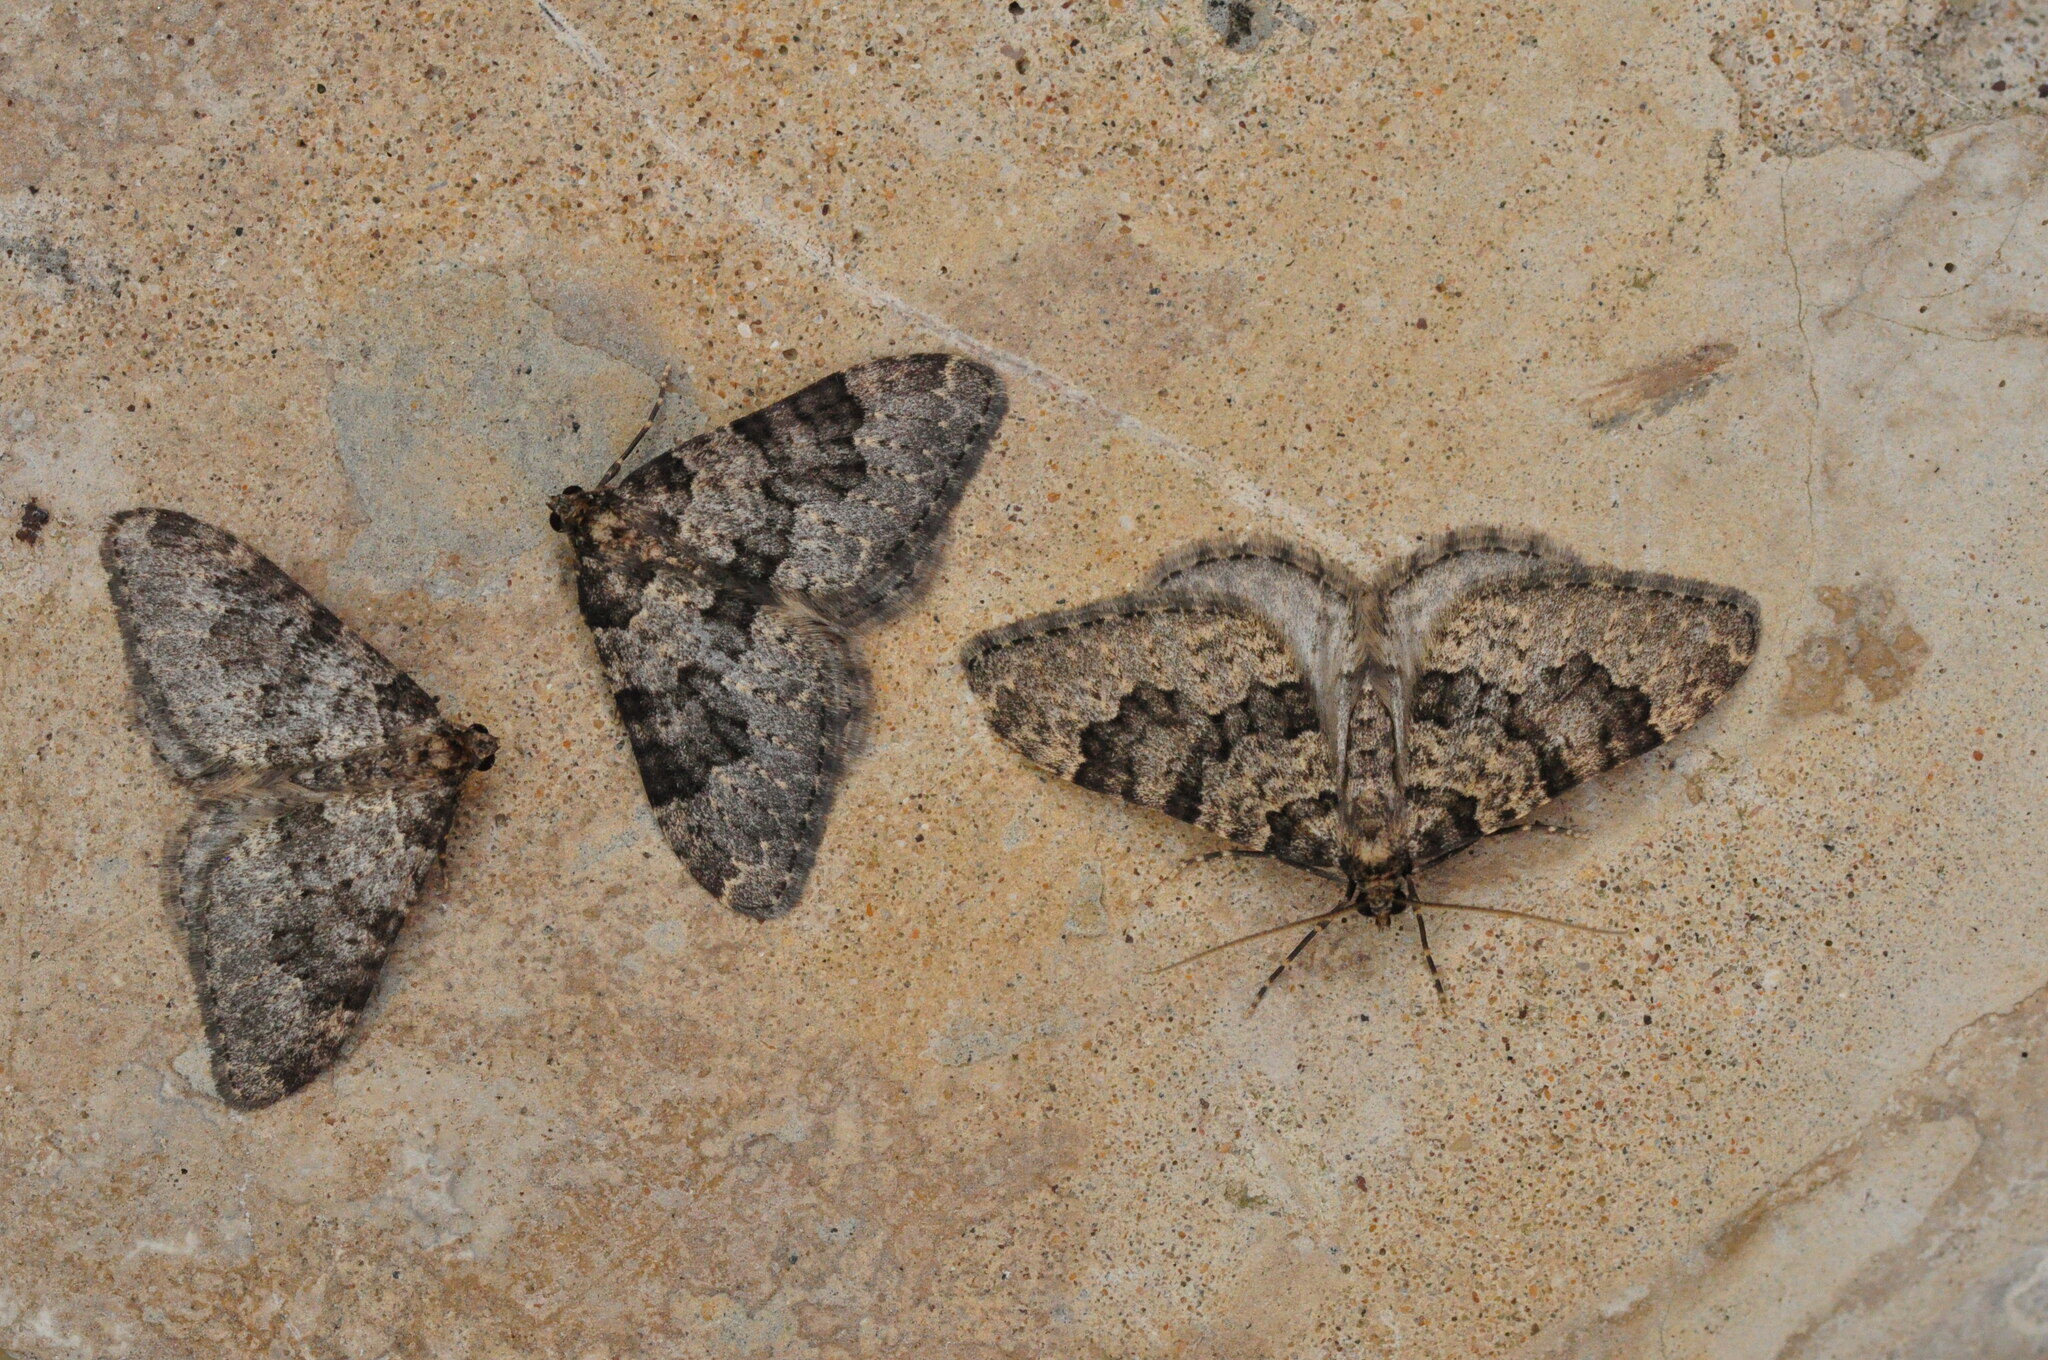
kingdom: Animalia
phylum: Arthropoda
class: Insecta
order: Lepidoptera
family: Geometridae
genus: Nebula
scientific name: Nebula ibericata
